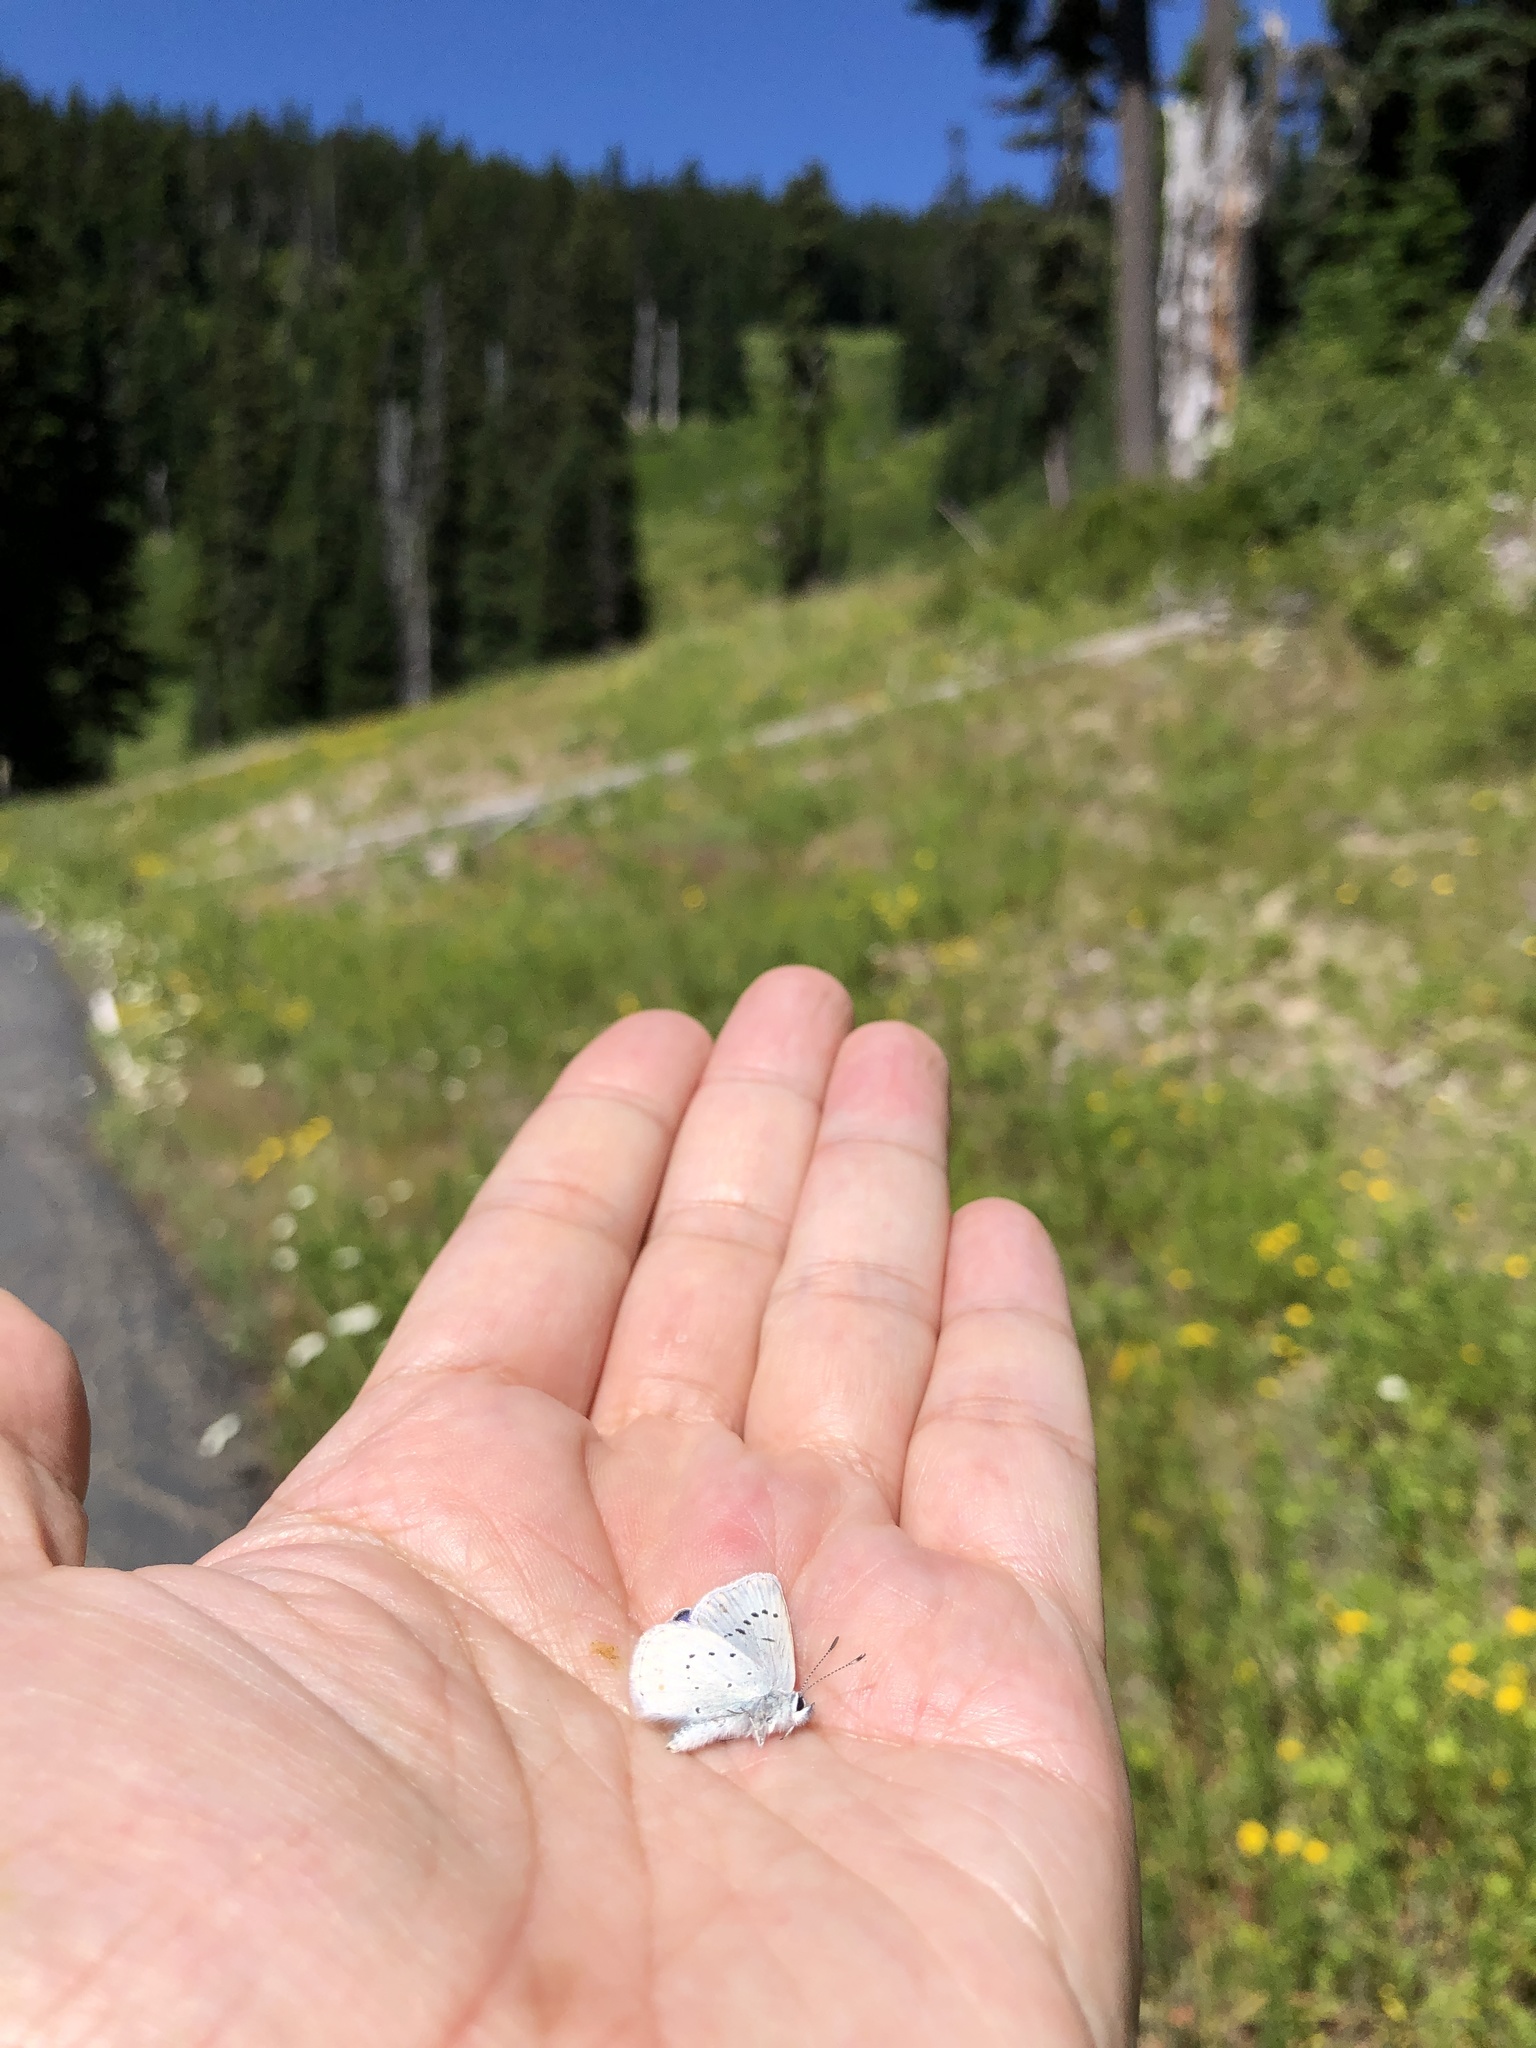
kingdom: Animalia
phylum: Arthropoda
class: Insecta
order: Lepidoptera
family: Lycaenidae
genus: Lycaeides
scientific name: Lycaeides anna
